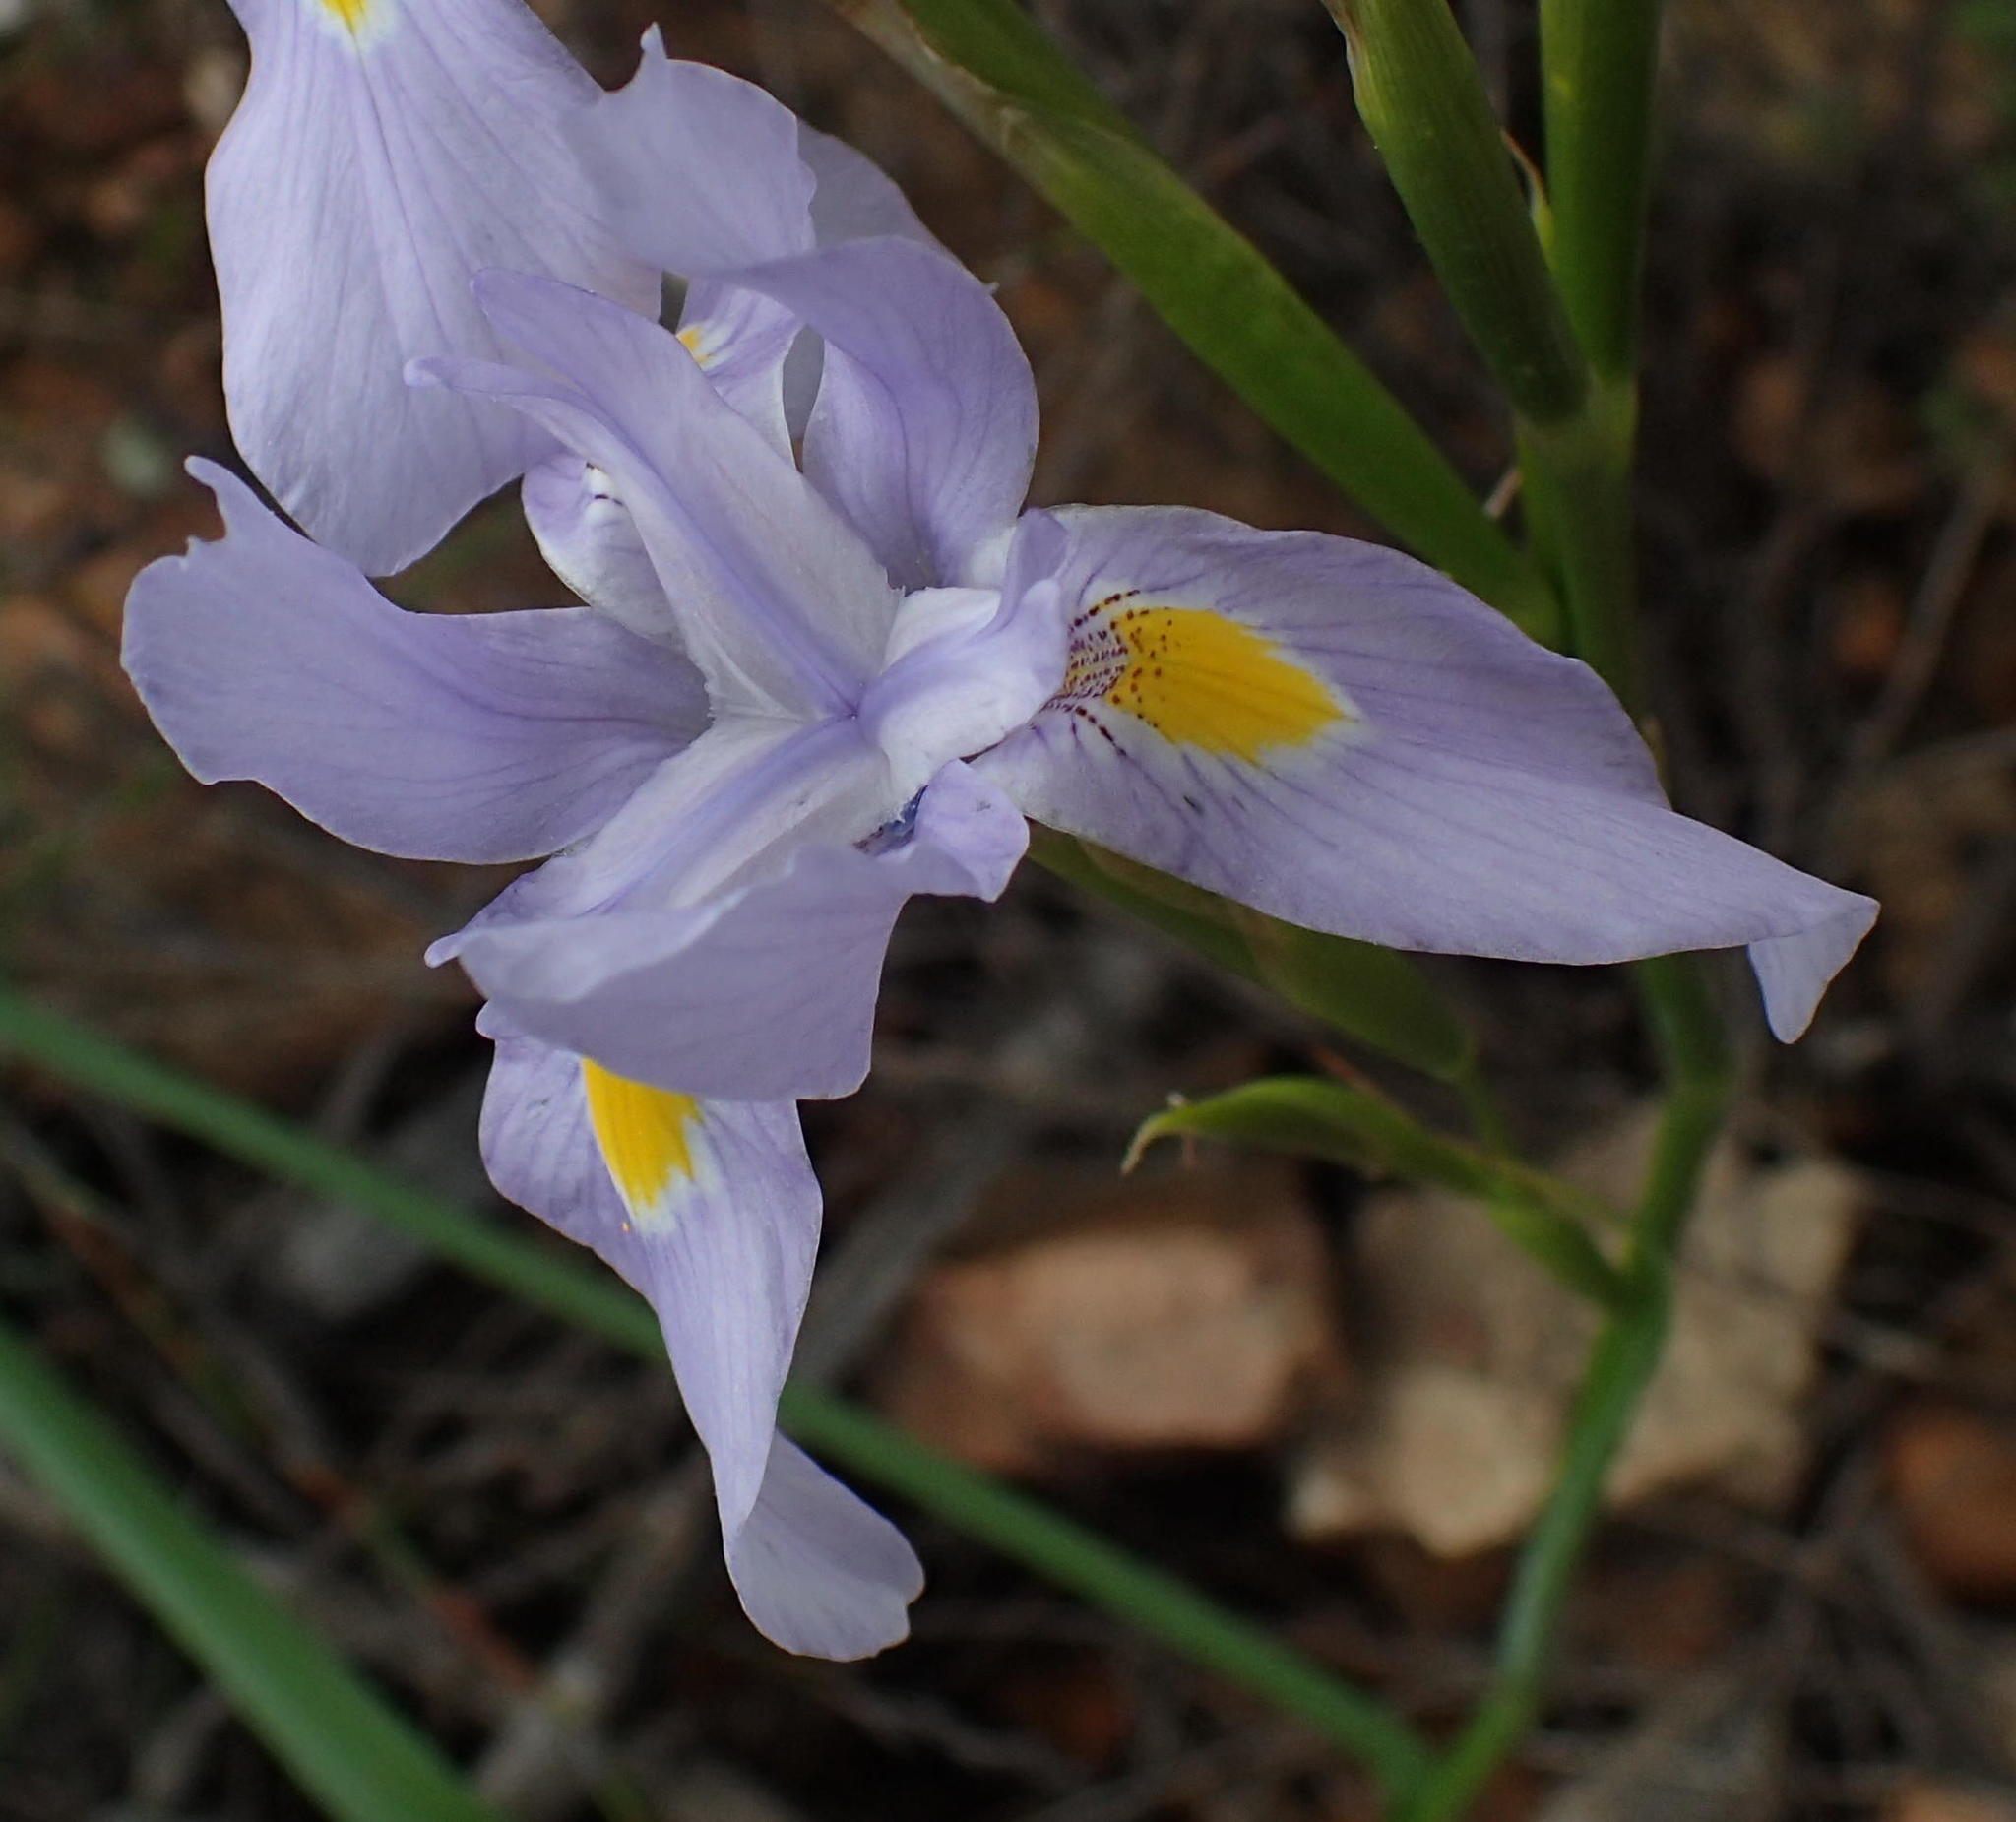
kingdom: Plantae
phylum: Tracheophyta
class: Liliopsida
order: Asparagales
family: Iridaceae
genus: Moraea
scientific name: Moraea polystachya
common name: Blue-tulip
